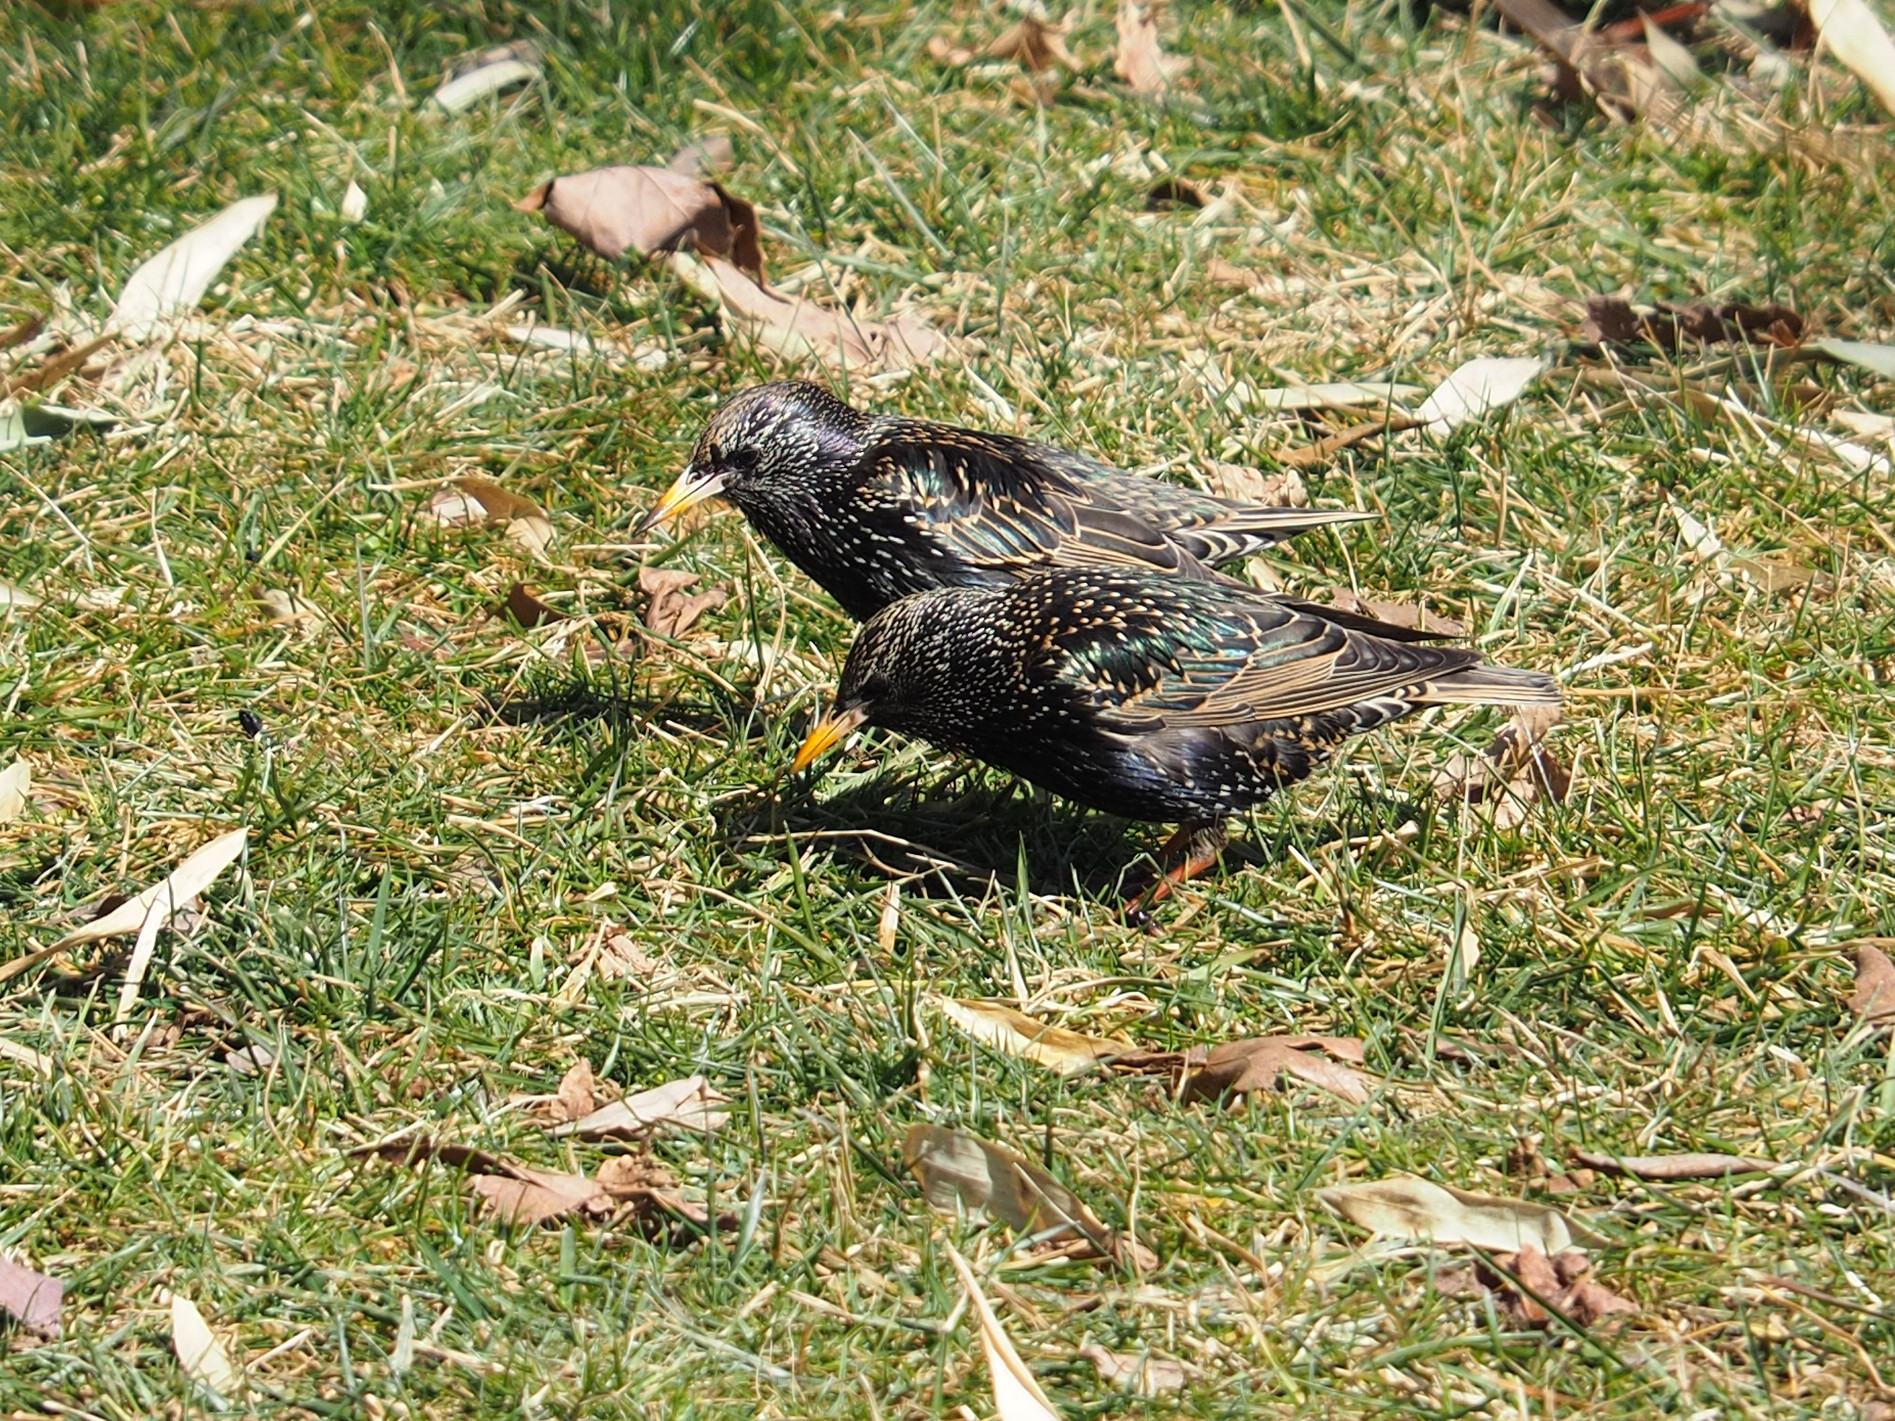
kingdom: Animalia
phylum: Chordata
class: Aves
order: Passeriformes
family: Sturnidae
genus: Sturnus
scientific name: Sturnus vulgaris
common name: Common starling
